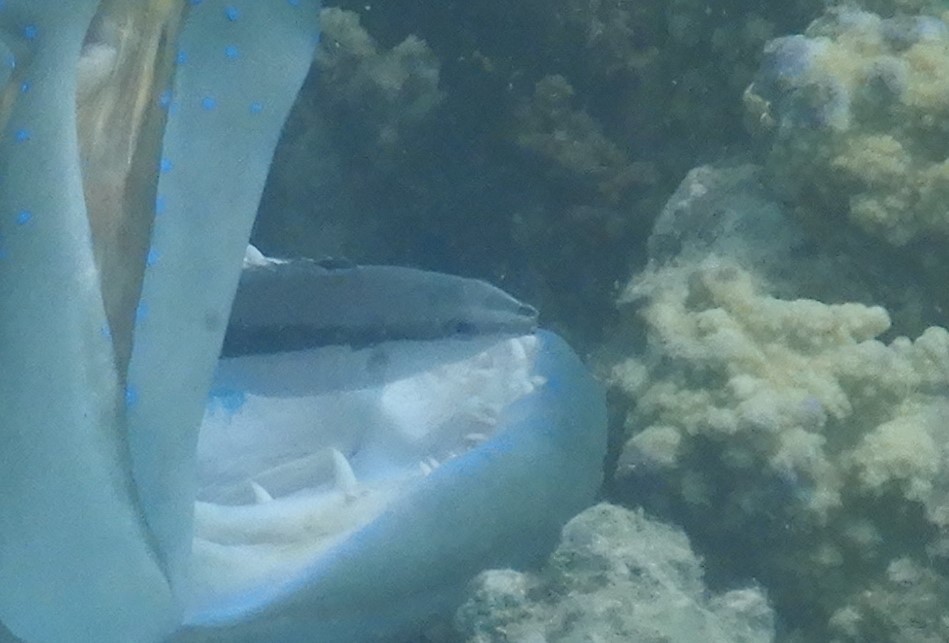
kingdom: Animalia
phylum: Chordata
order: Perciformes
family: Labridae
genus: Labroides
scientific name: Labroides dimidiatus
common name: Blue diesel wrasse
